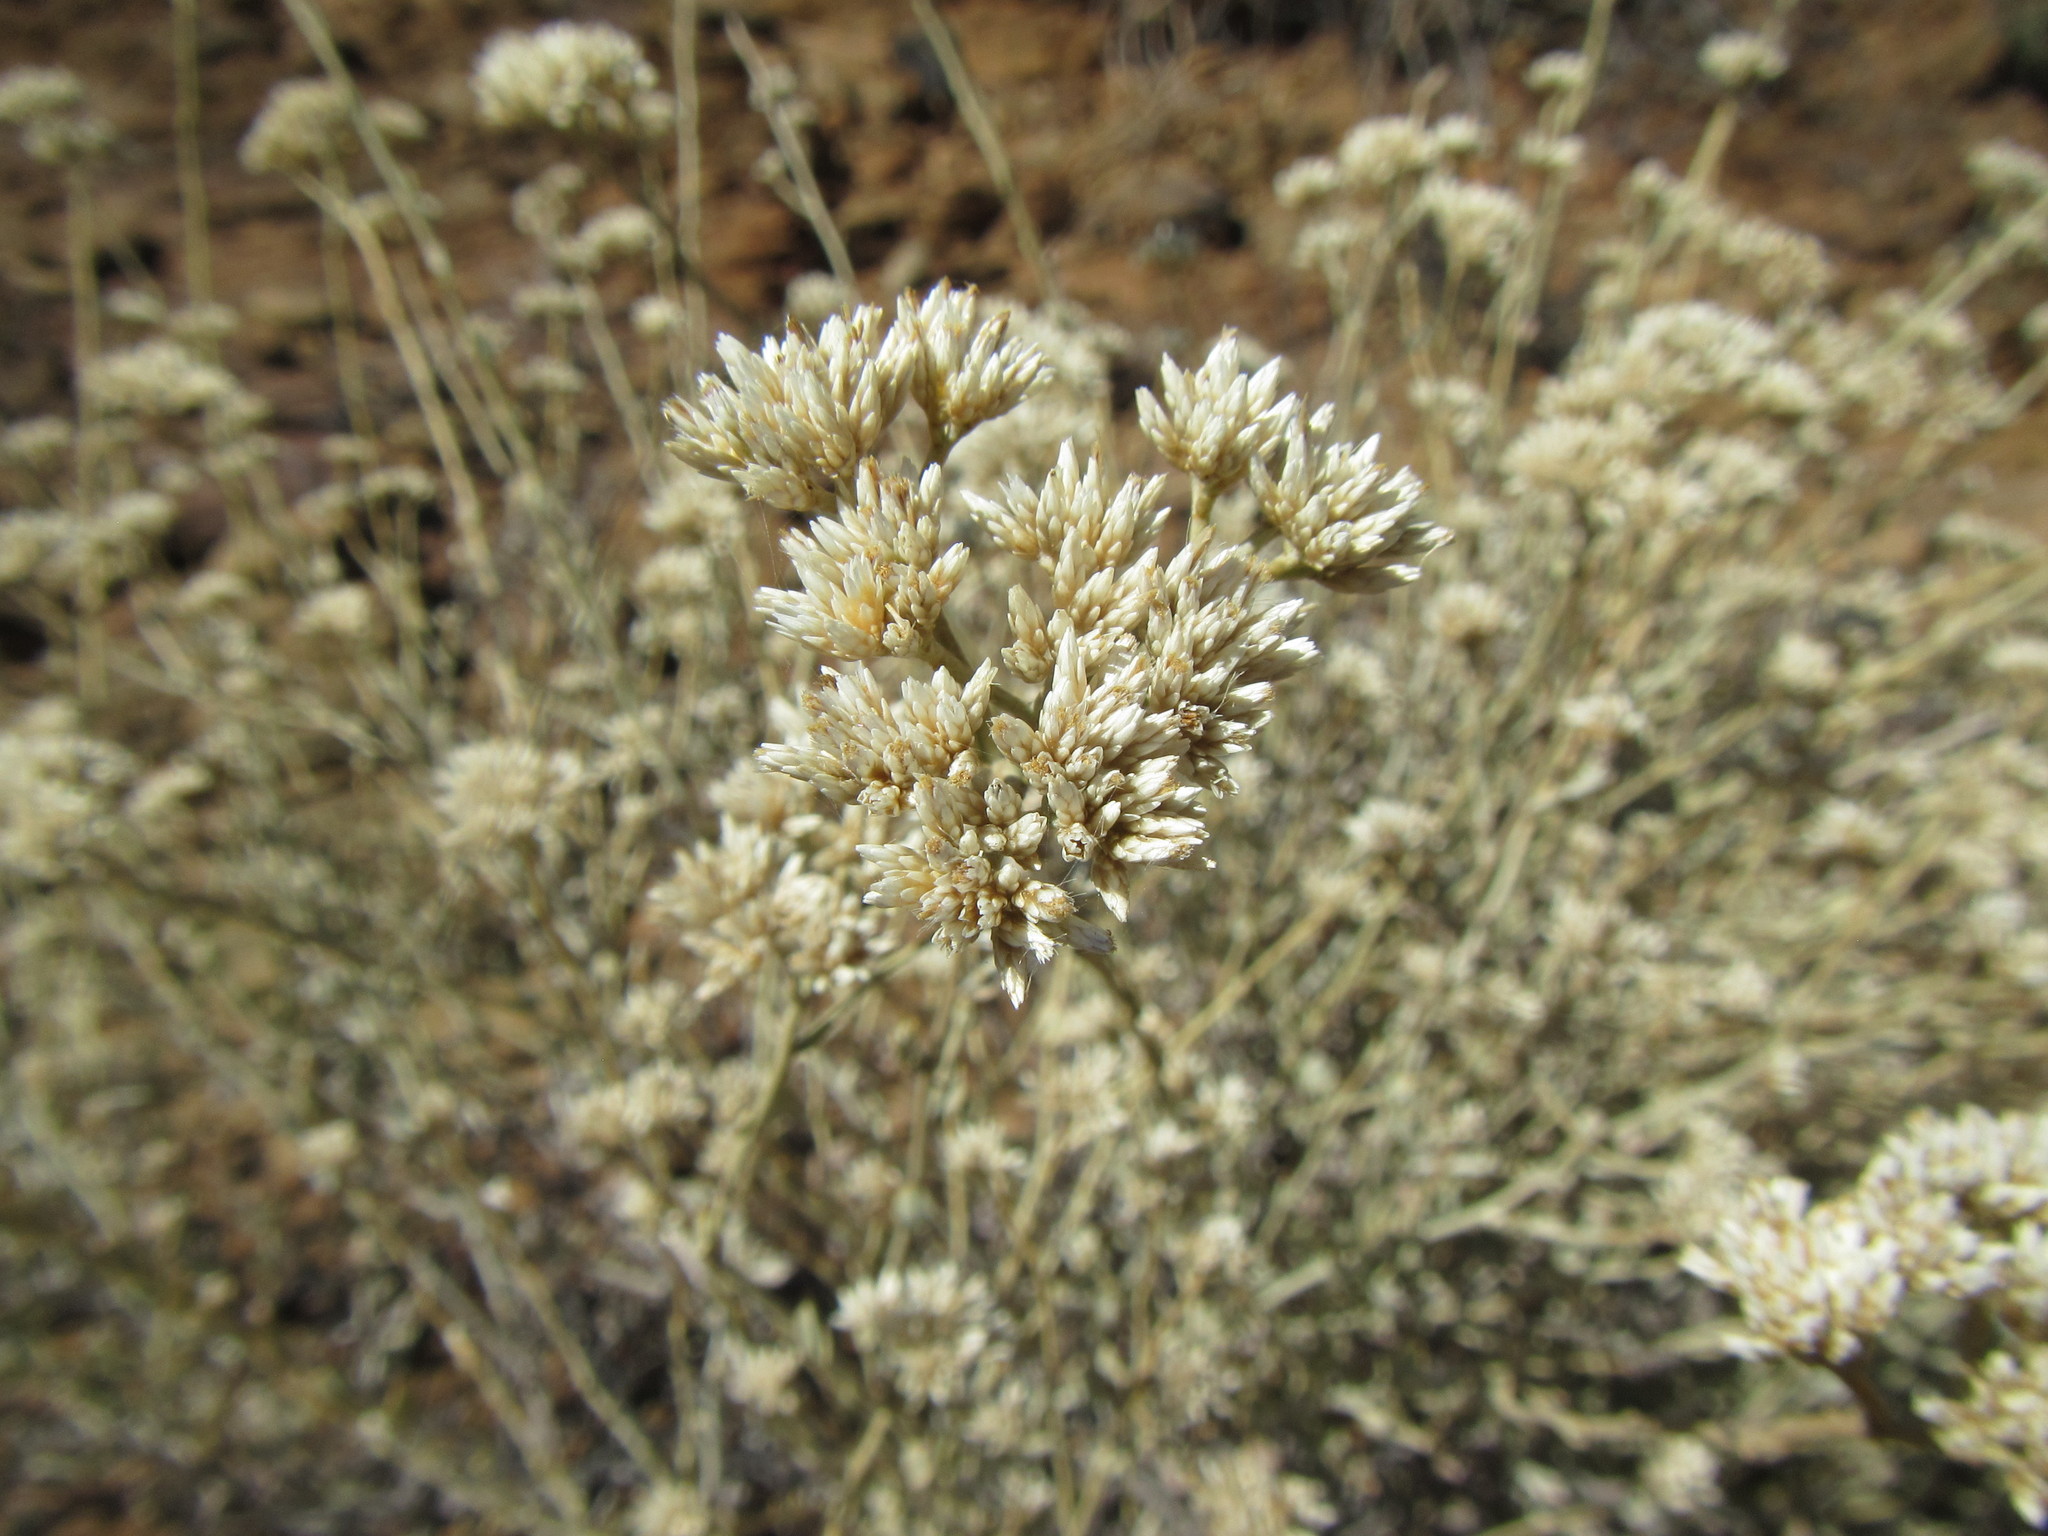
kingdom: Plantae
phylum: Tracheophyta
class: Magnoliopsida
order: Asterales
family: Asteraceae
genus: Helichrysum
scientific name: Helichrysum zeyheri
